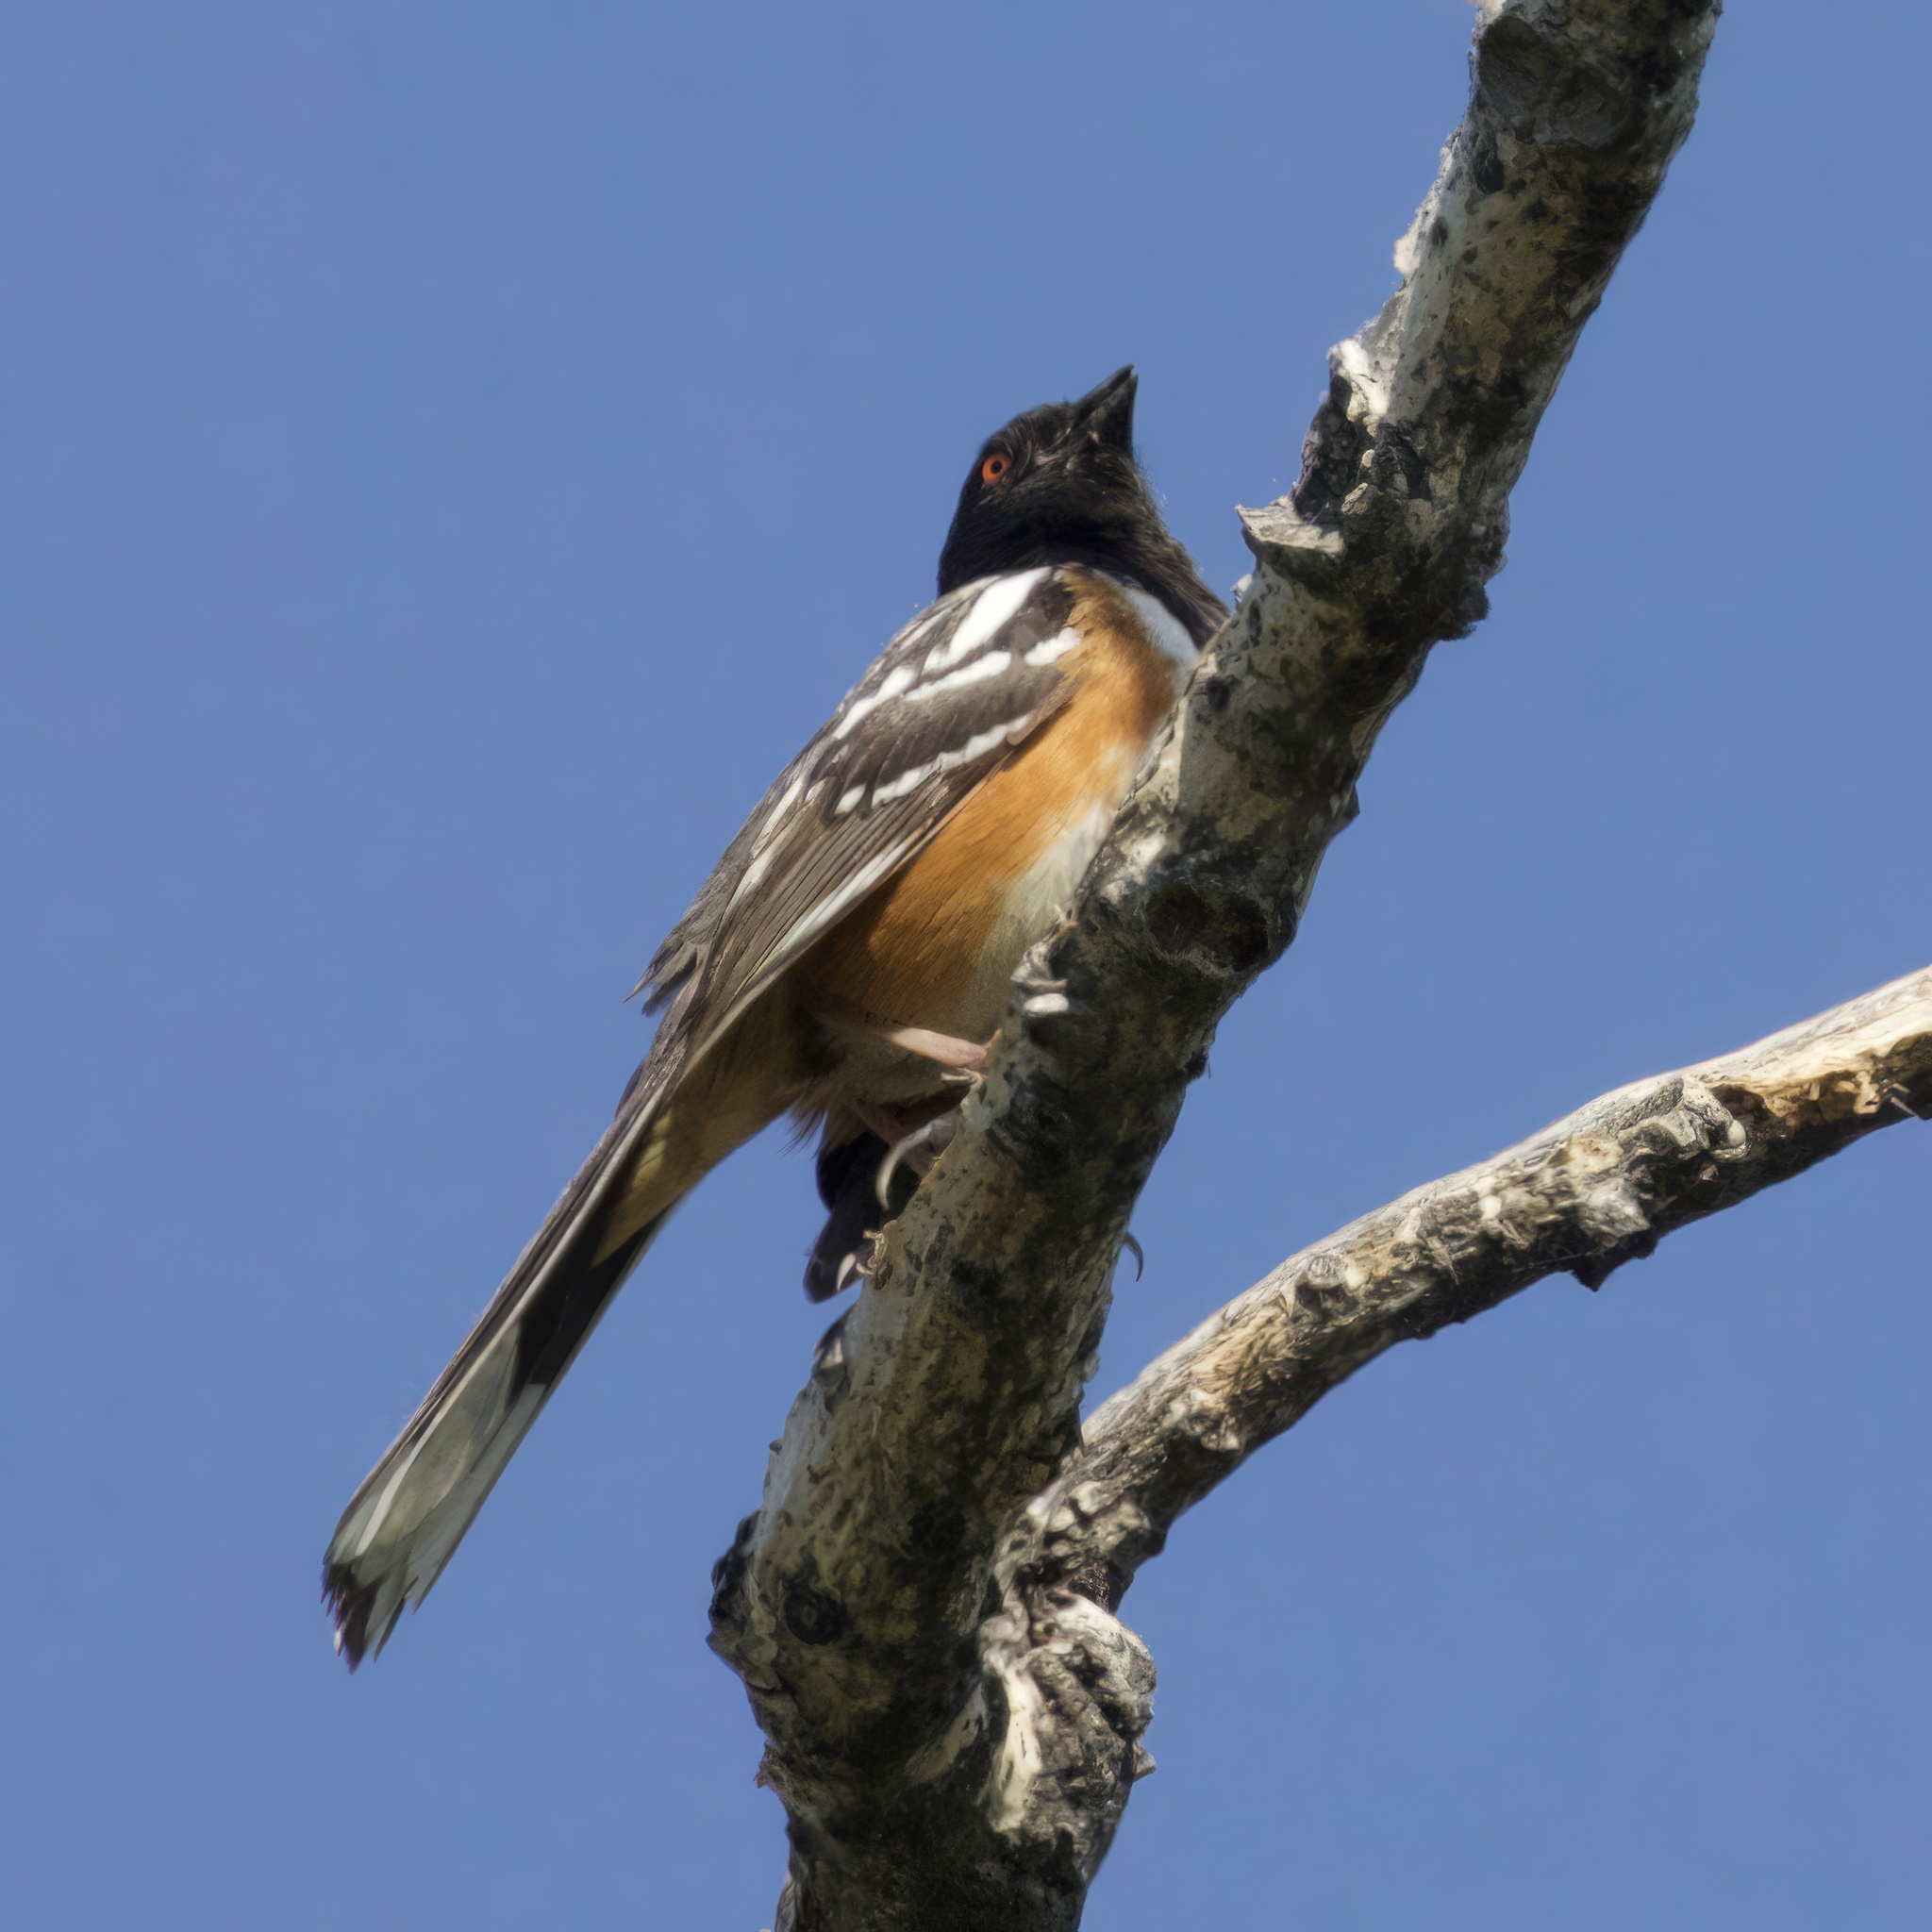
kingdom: Animalia
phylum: Chordata
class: Aves
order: Passeriformes
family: Passerellidae
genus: Pipilo
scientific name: Pipilo maculatus
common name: Spotted towhee
